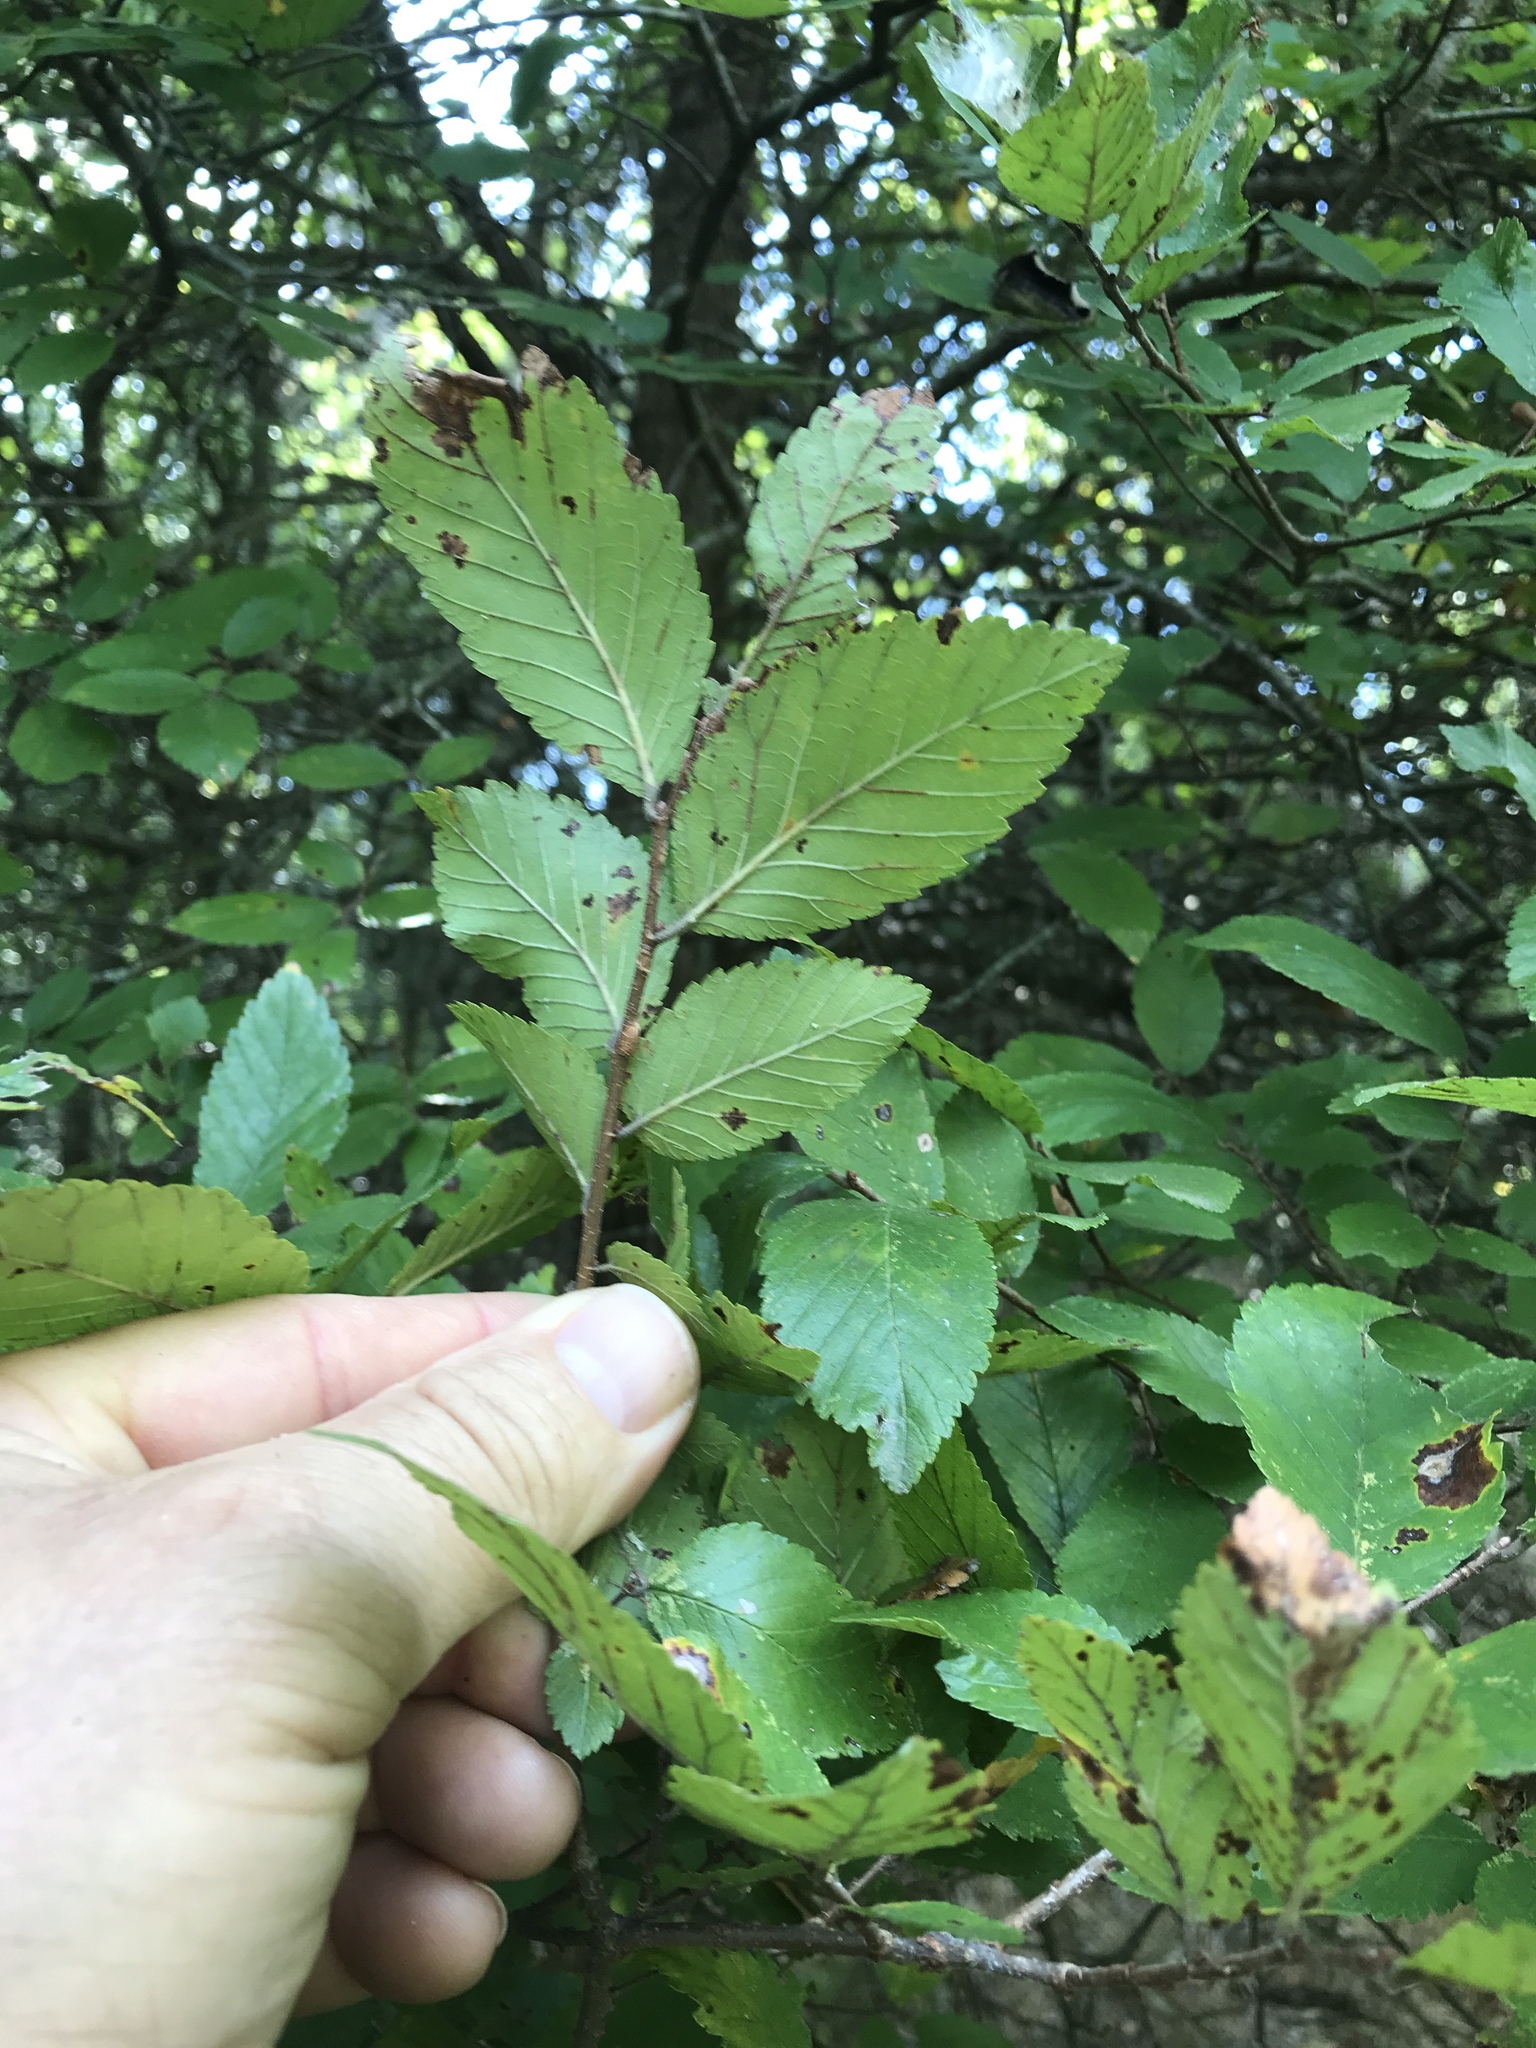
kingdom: Plantae
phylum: Tracheophyta
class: Magnoliopsida
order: Rosales
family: Ulmaceae
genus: Ulmus
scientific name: Ulmus crassifolia
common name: Basket elm
